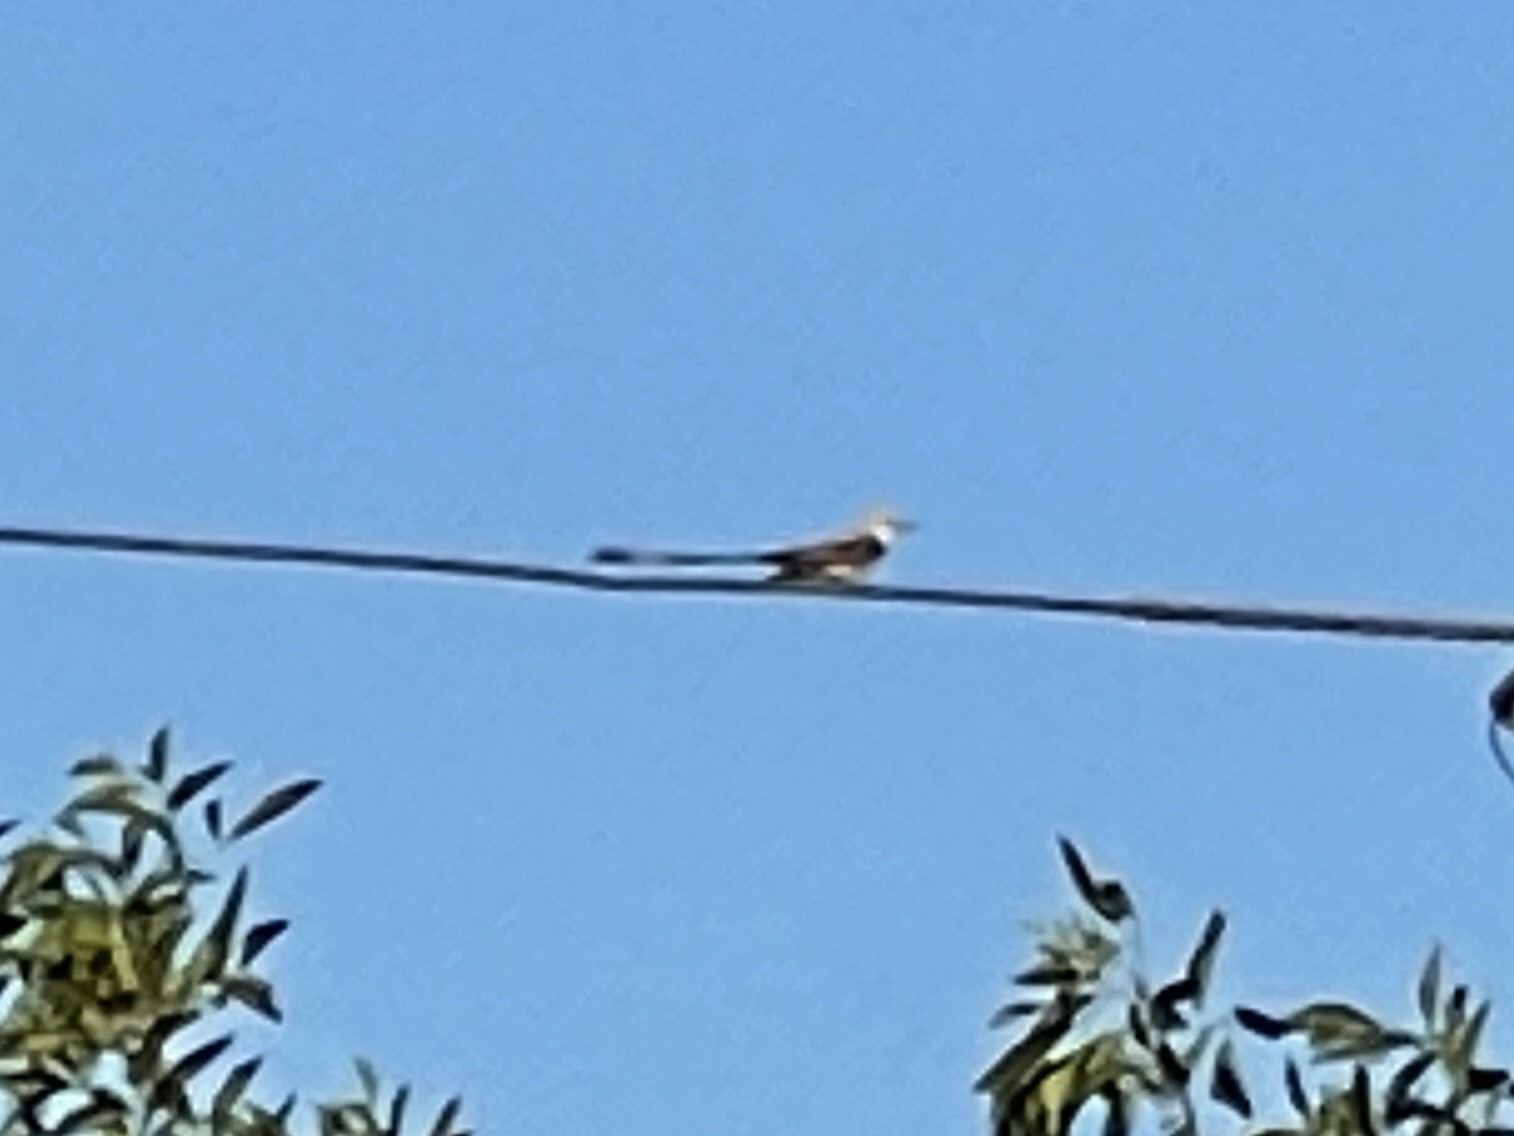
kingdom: Animalia
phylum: Chordata
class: Aves
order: Passeriformes
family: Tyrannidae
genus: Tyrannus
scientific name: Tyrannus forficatus
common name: Scissor-tailed flycatcher
